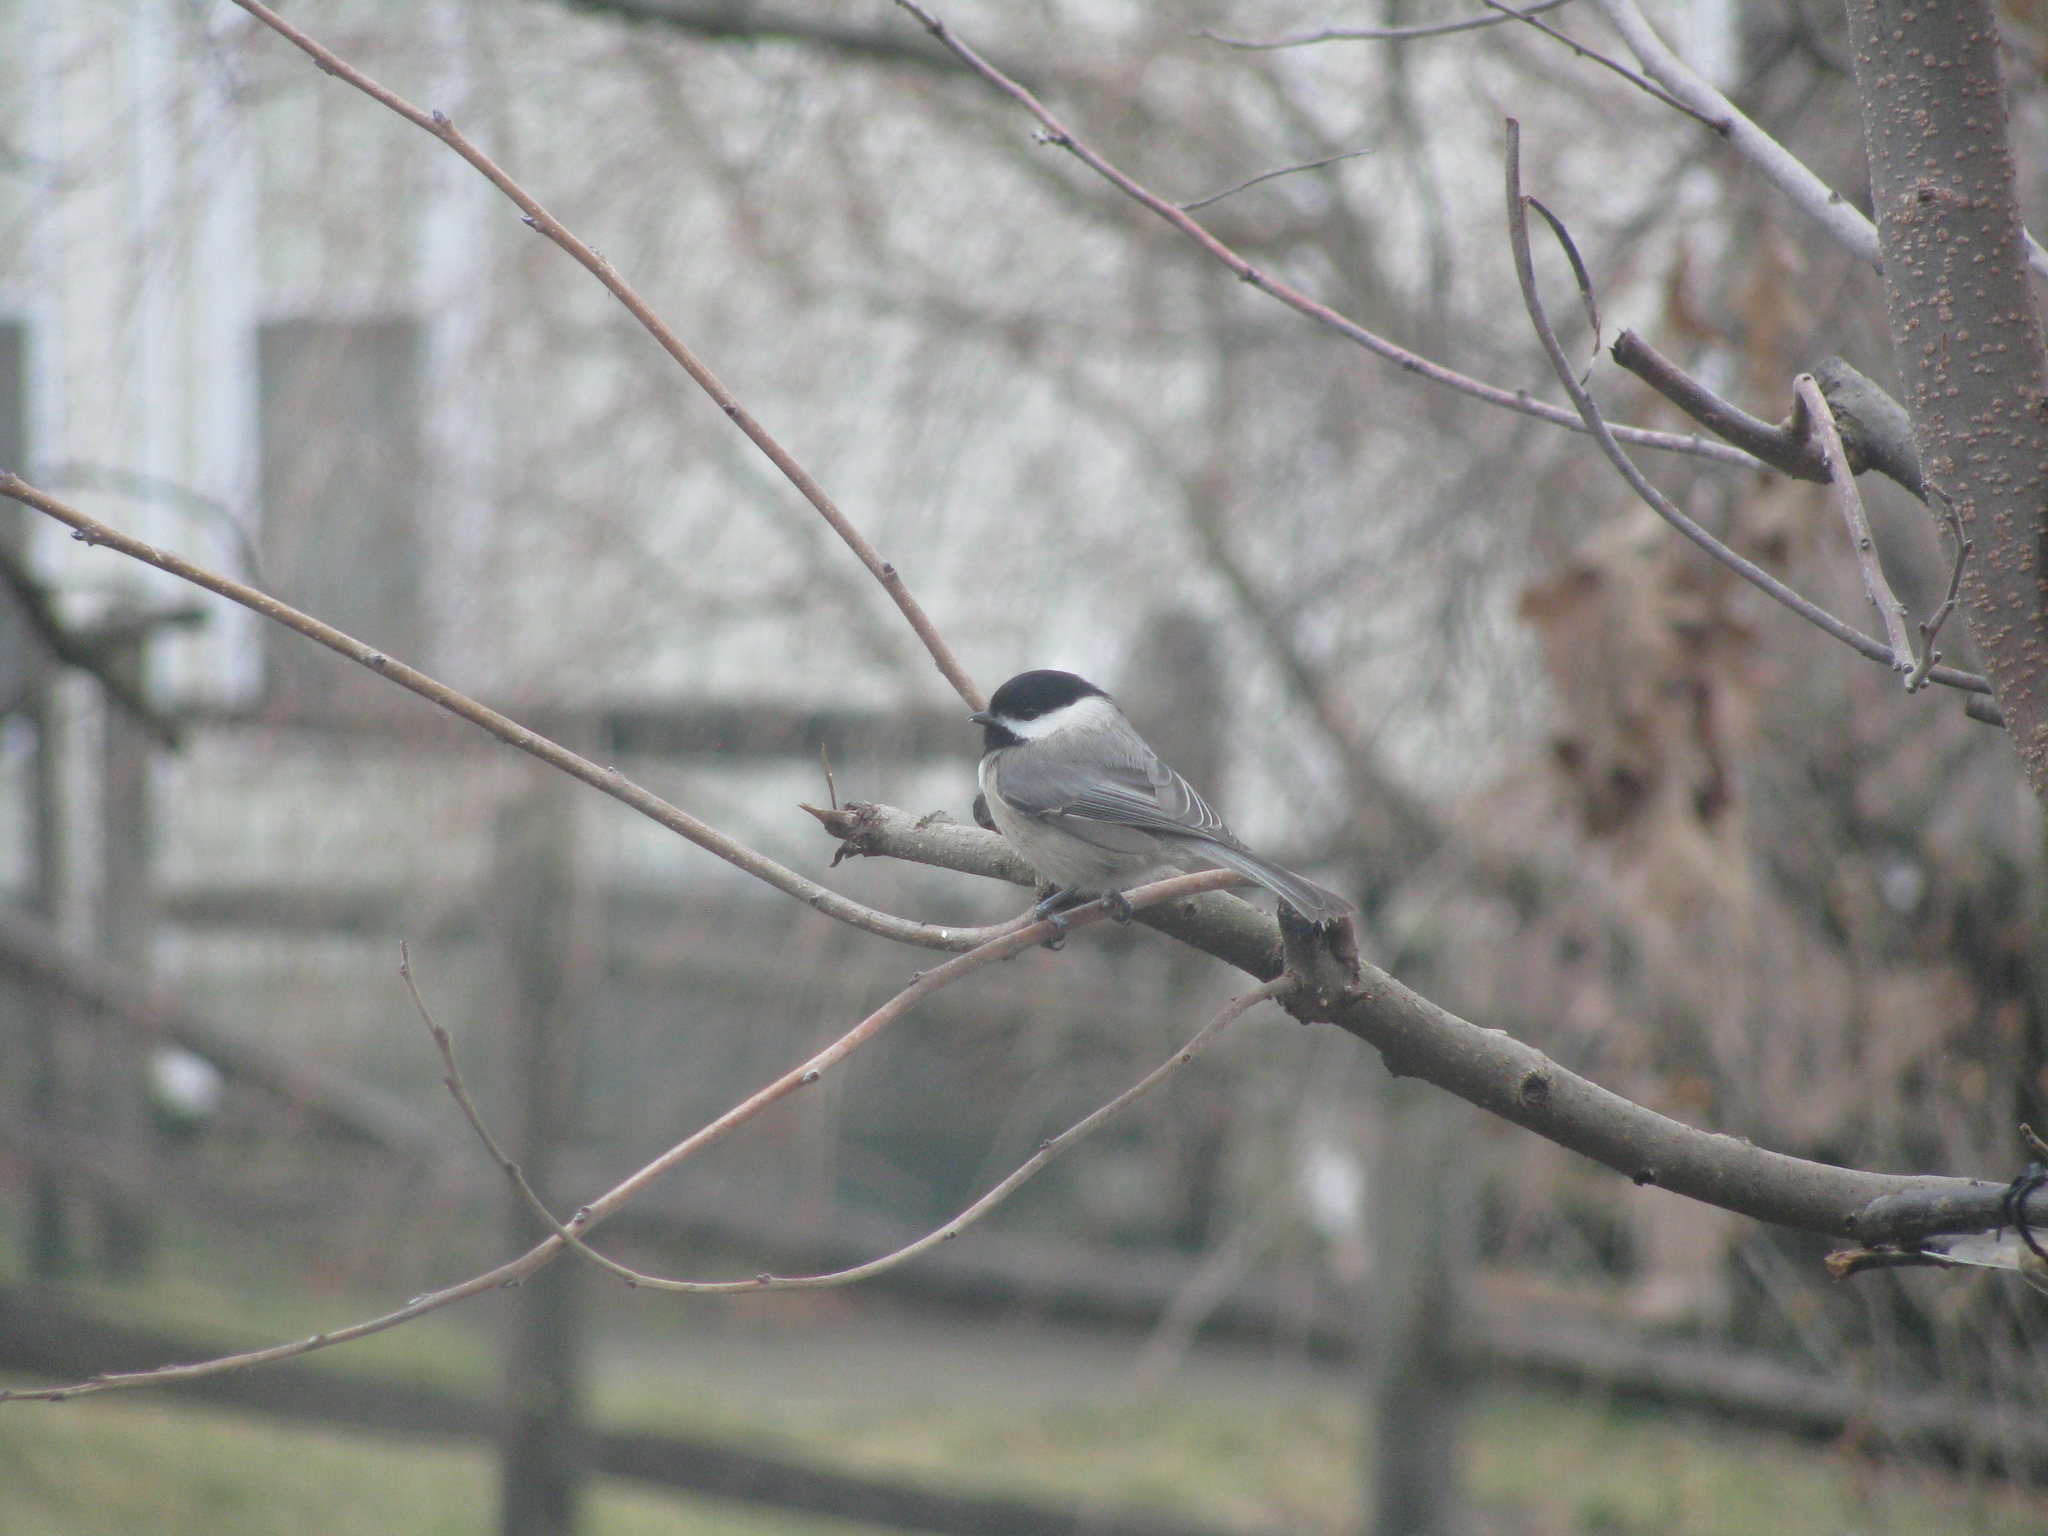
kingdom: Animalia
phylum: Chordata
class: Aves
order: Passeriformes
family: Paridae
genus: Poecile
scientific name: Poecile
